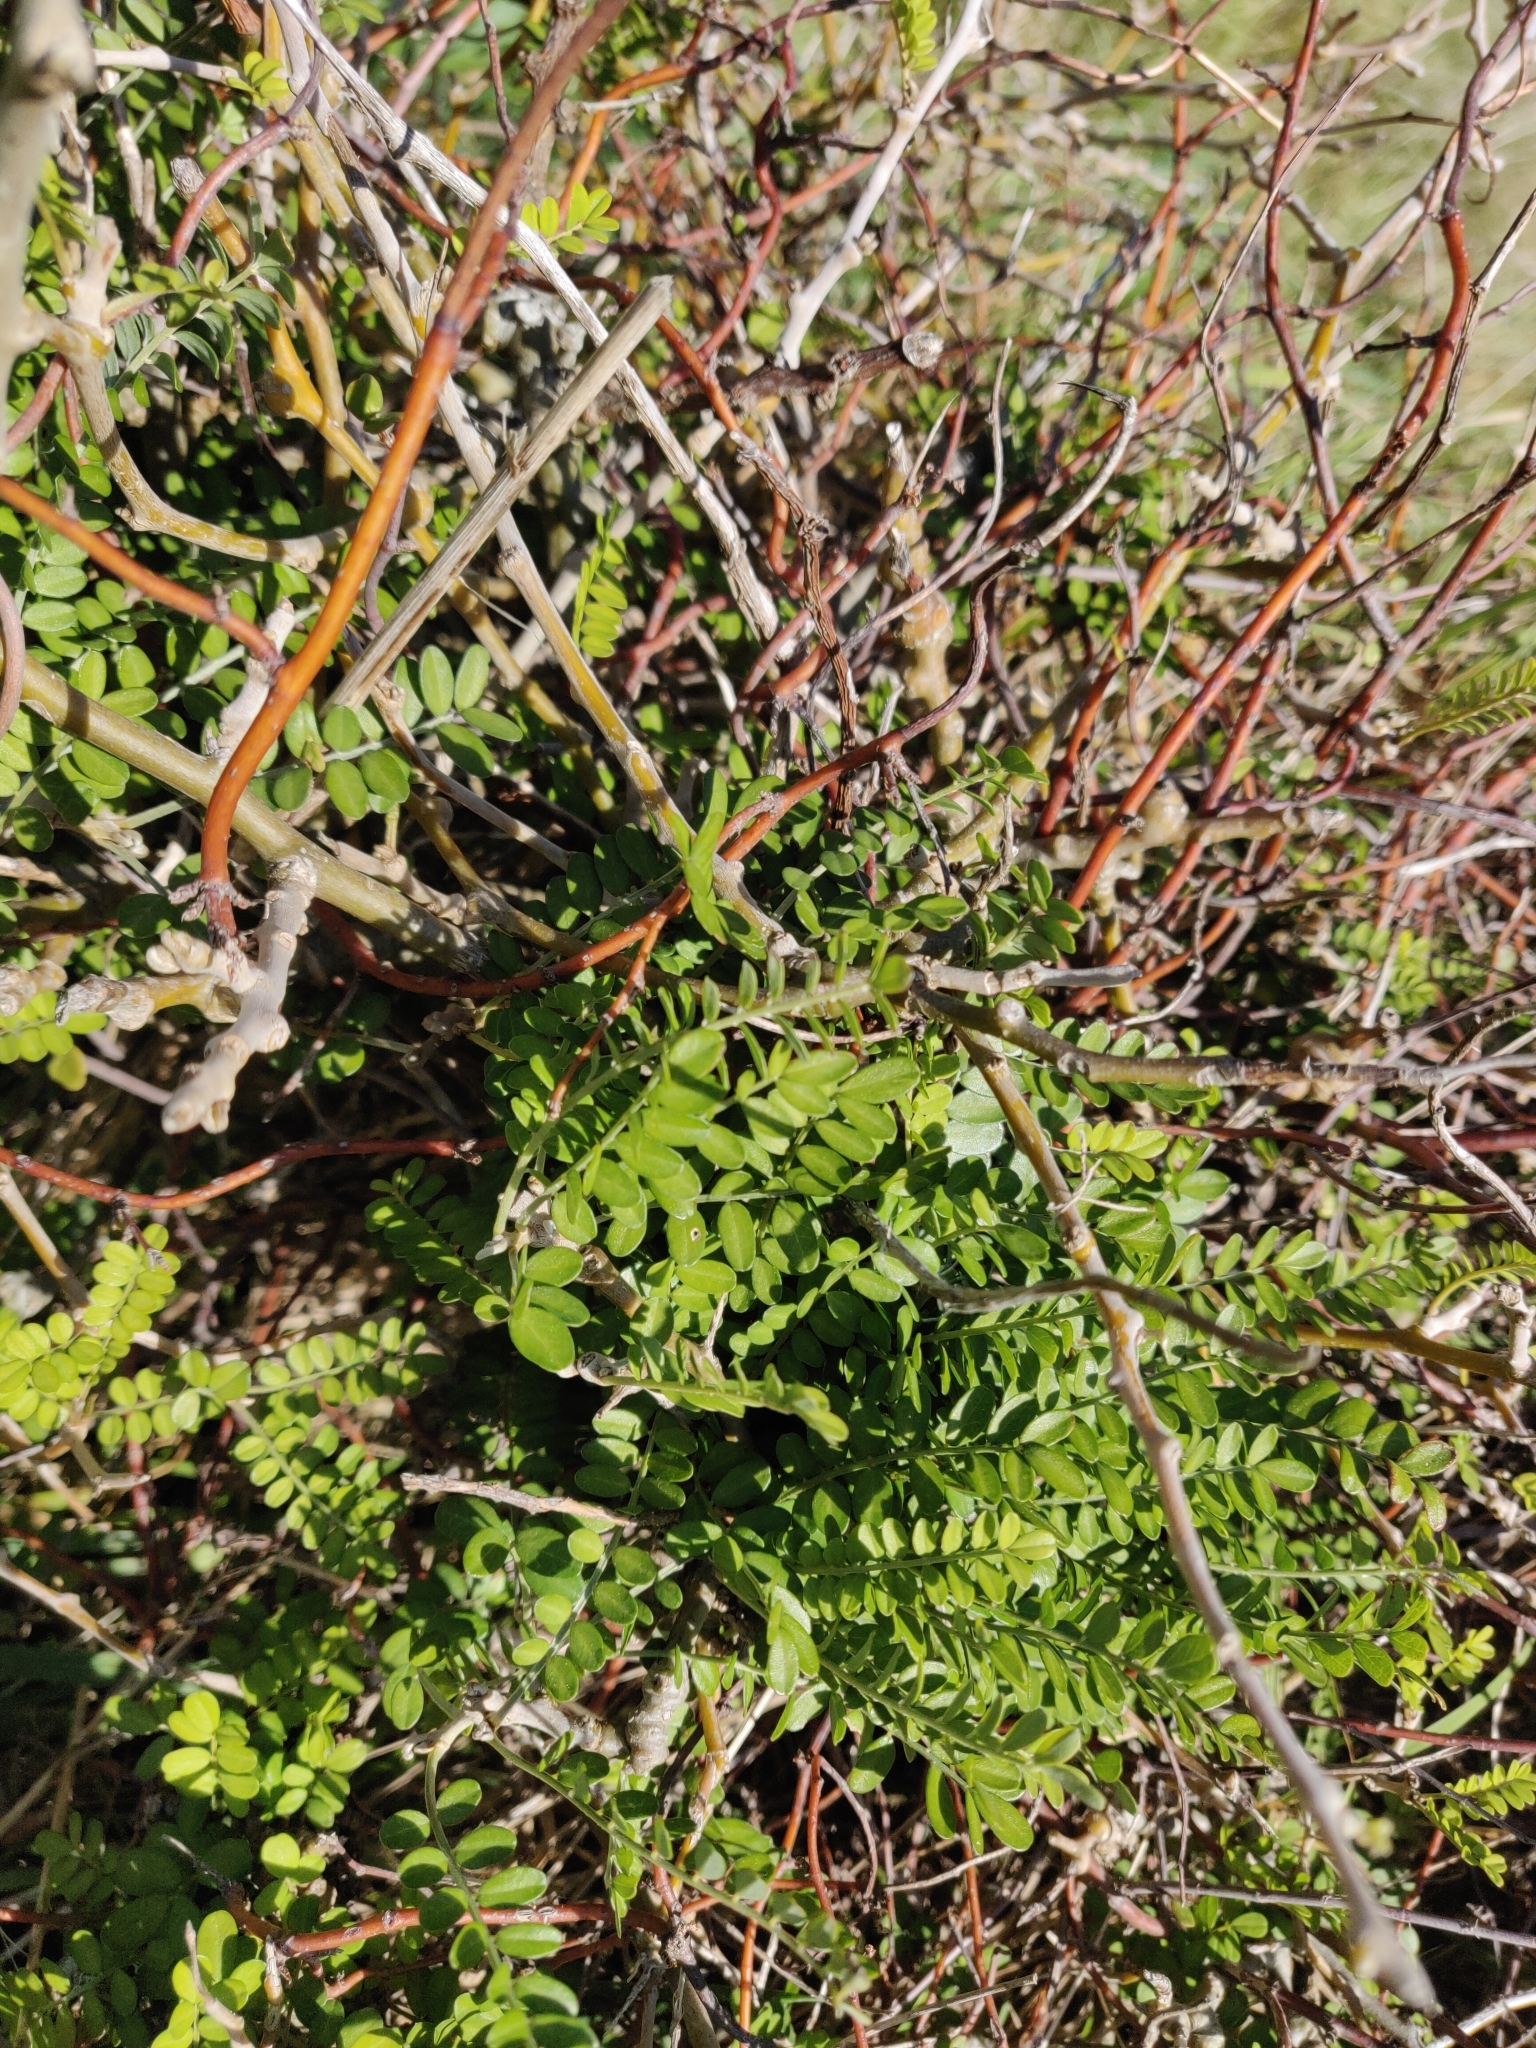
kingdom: Plantae
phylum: Tracheophyta
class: Magnoliopsida
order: Fabales
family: Fabaceae
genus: Sophora
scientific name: Sophora molloyi
